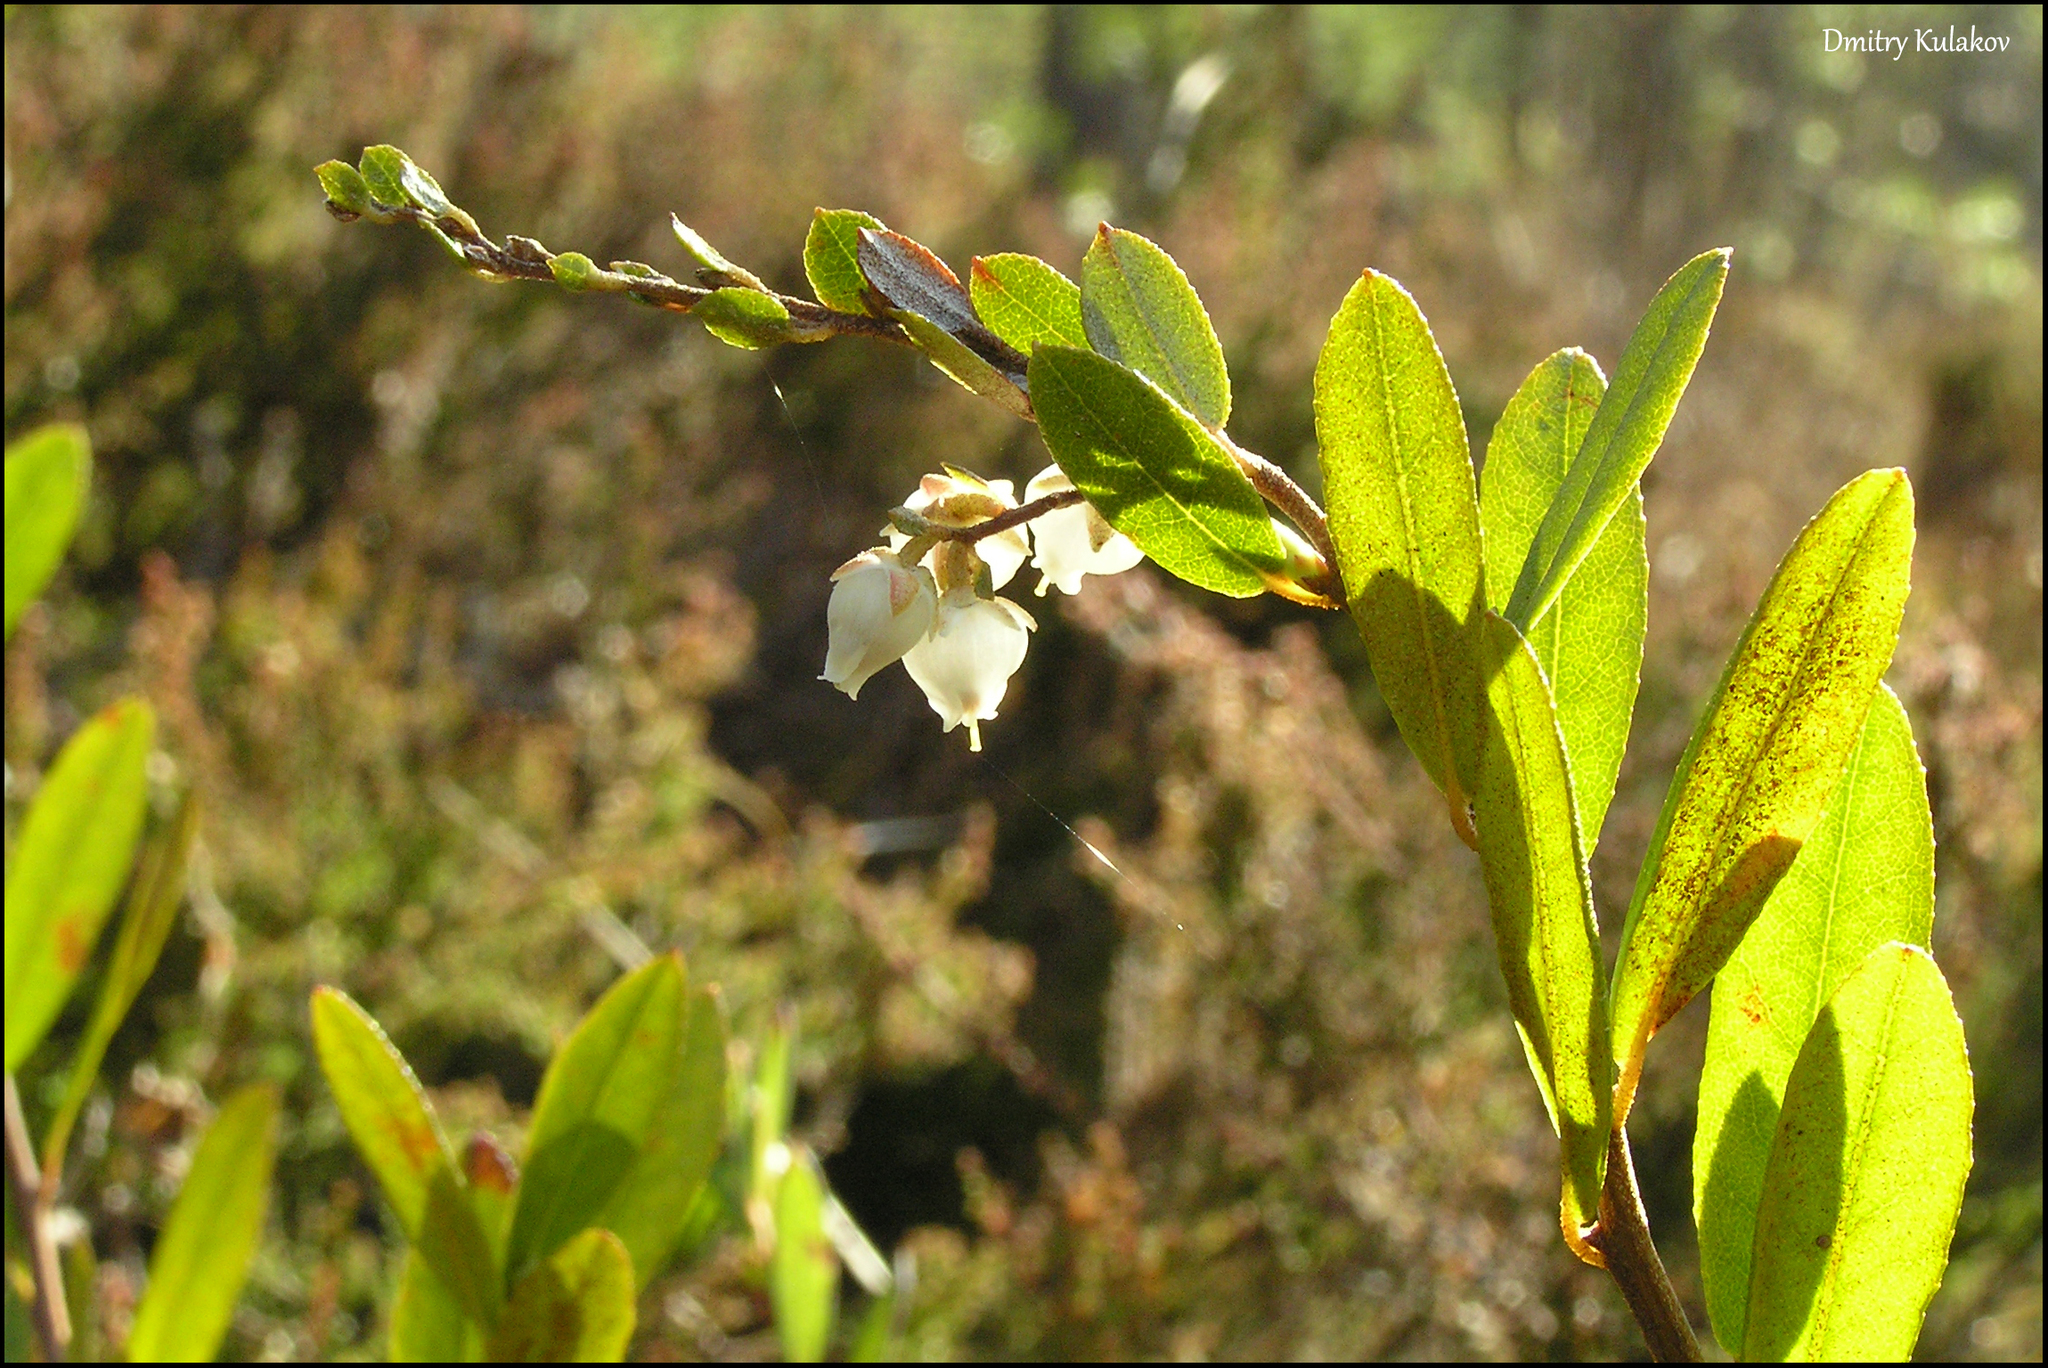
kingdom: Plantae
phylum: Tracheophyta
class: Magnoliopsida
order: Ericales
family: Ericaceae
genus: Chamaedaphne
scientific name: Chamaedaphne calyculata
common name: Leatherleaf
